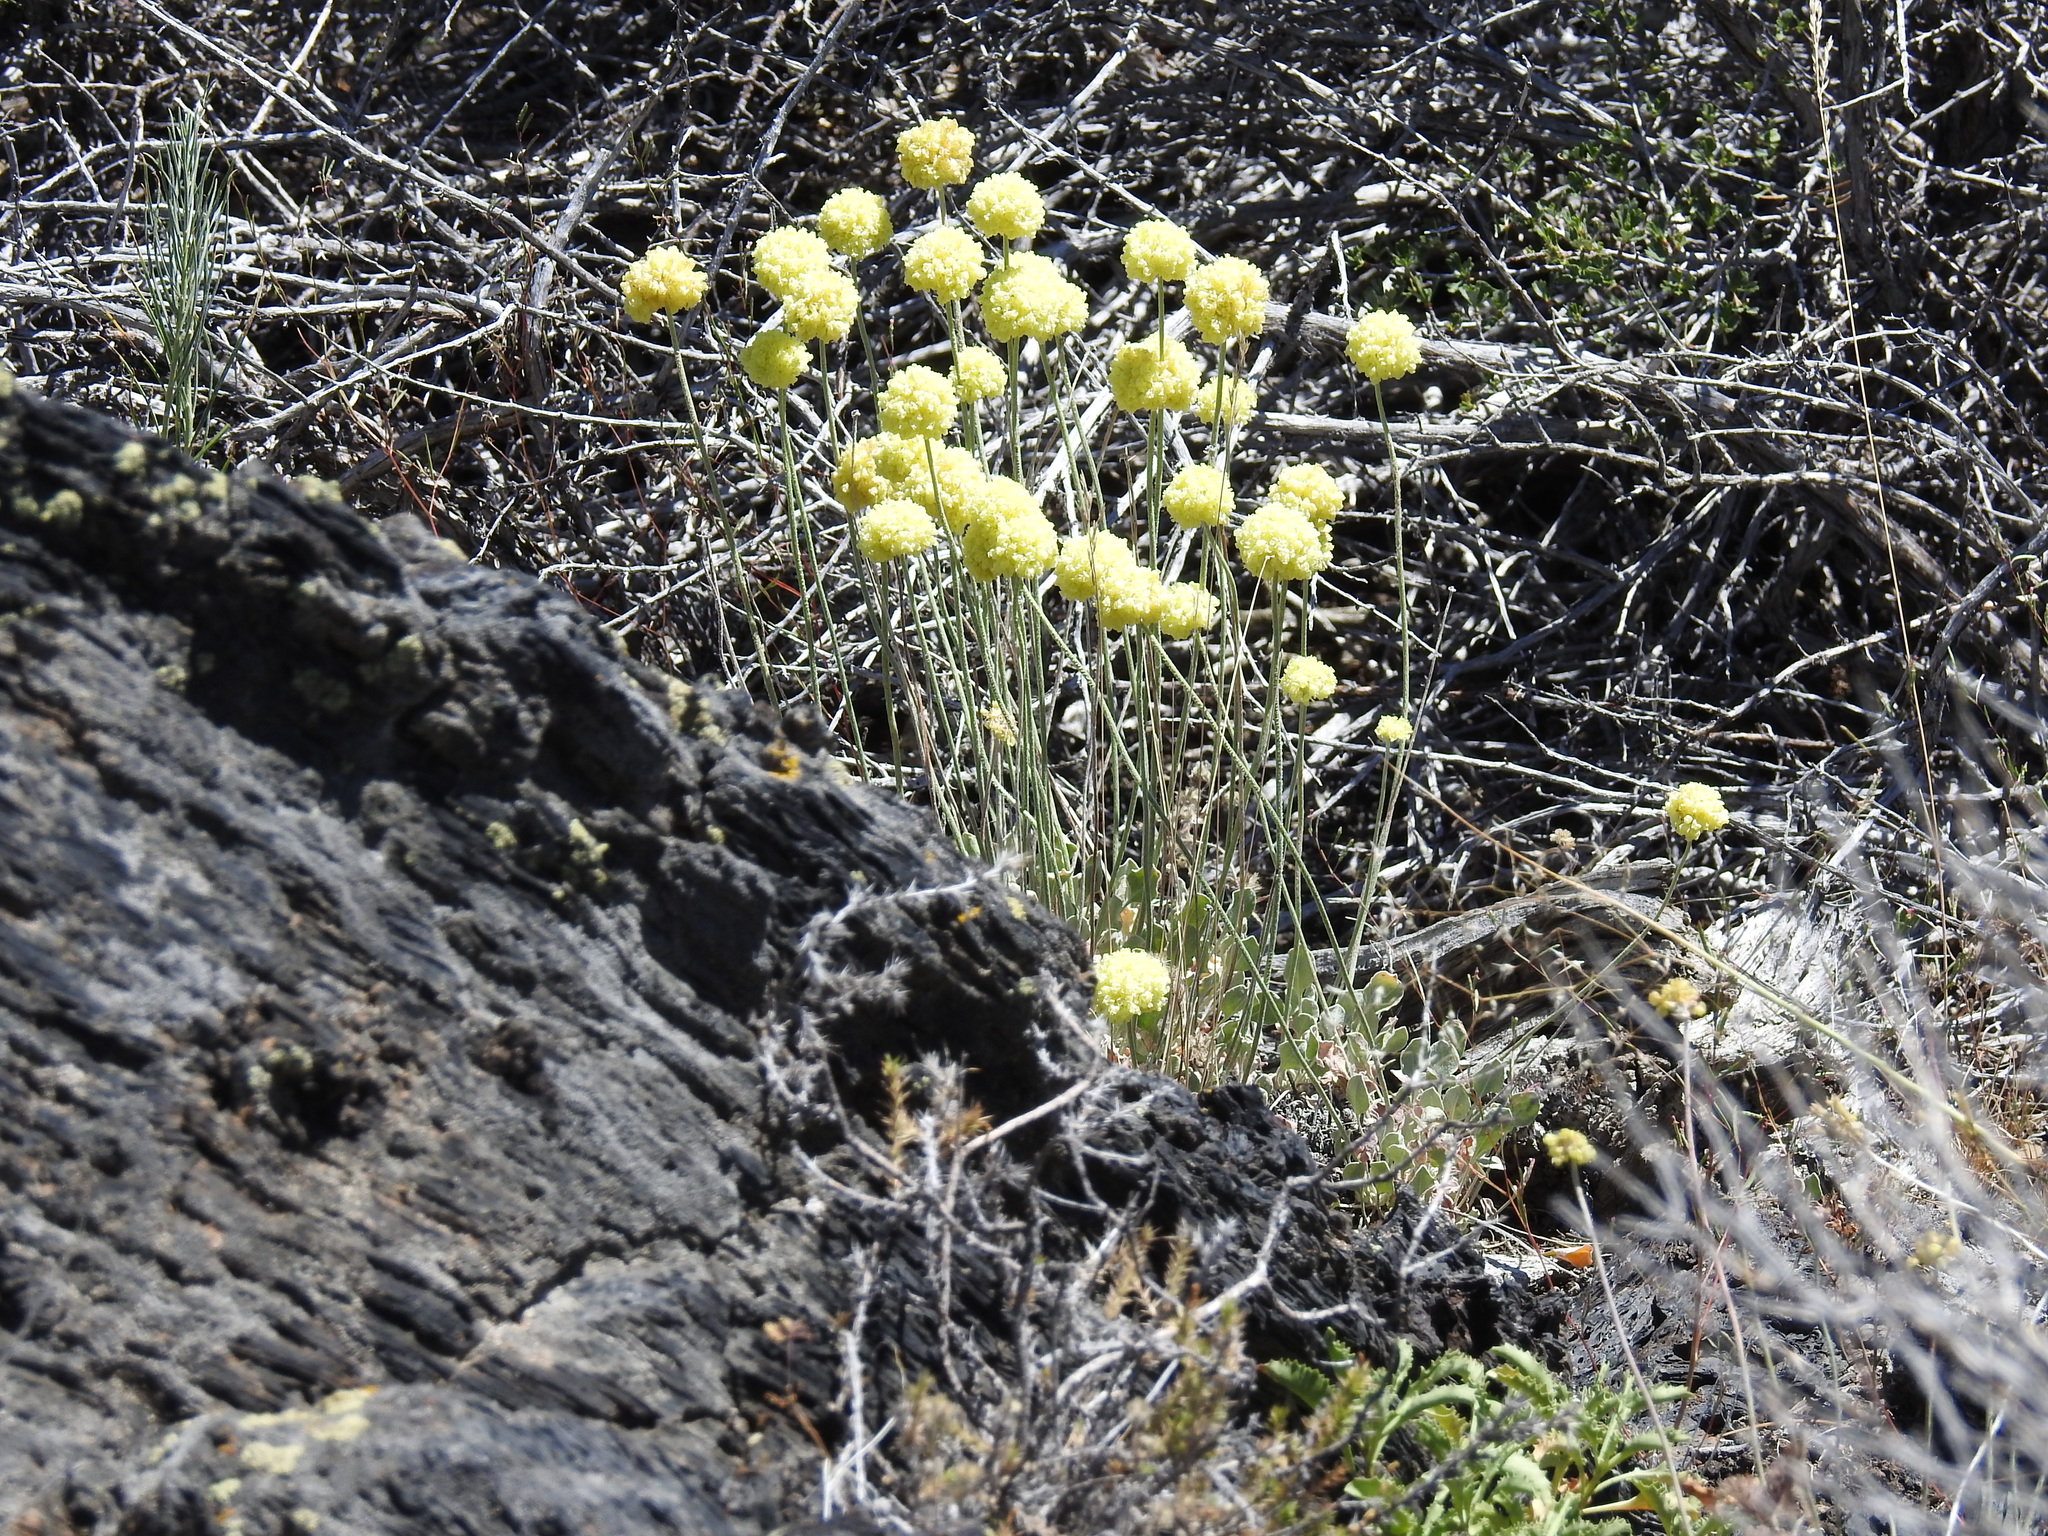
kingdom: Plantae
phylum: Tracheophyta
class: Magnoliopsida
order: Caryophyllales
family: Polygonaceae
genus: Eriogonum
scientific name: Eriogonum ovalifolium
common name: Cushion buckwheat
